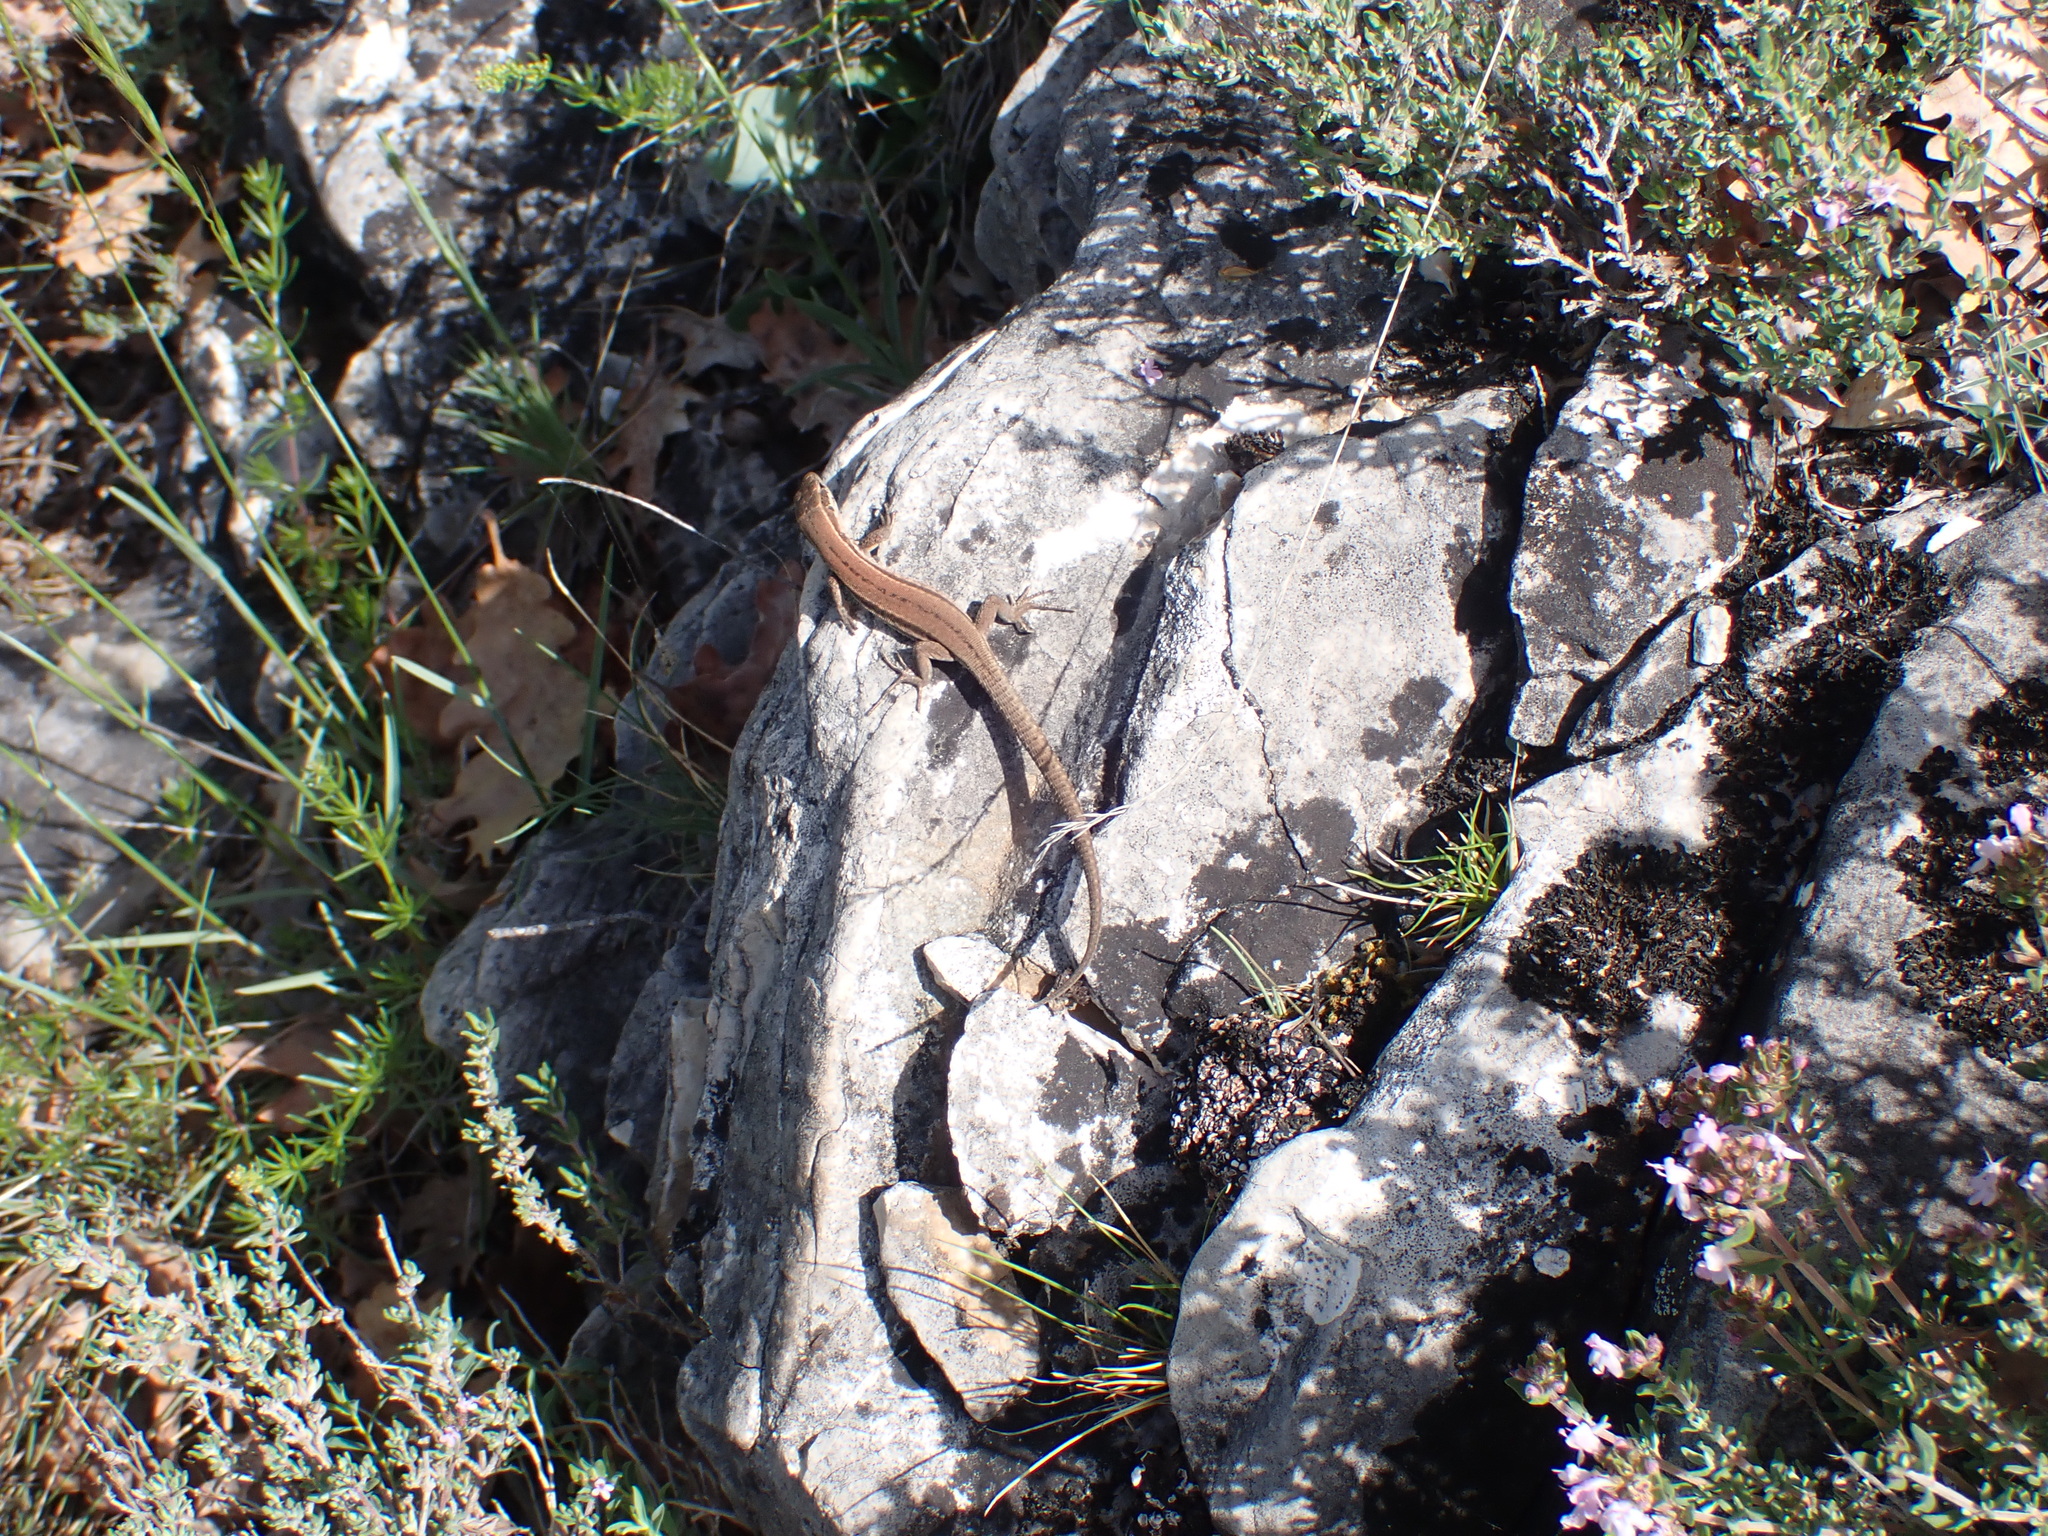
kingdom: Animalia
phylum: Chordata
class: Squamata
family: Lacertidae
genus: Podarcis
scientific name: Podarcis muralis
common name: Common wall lizard
